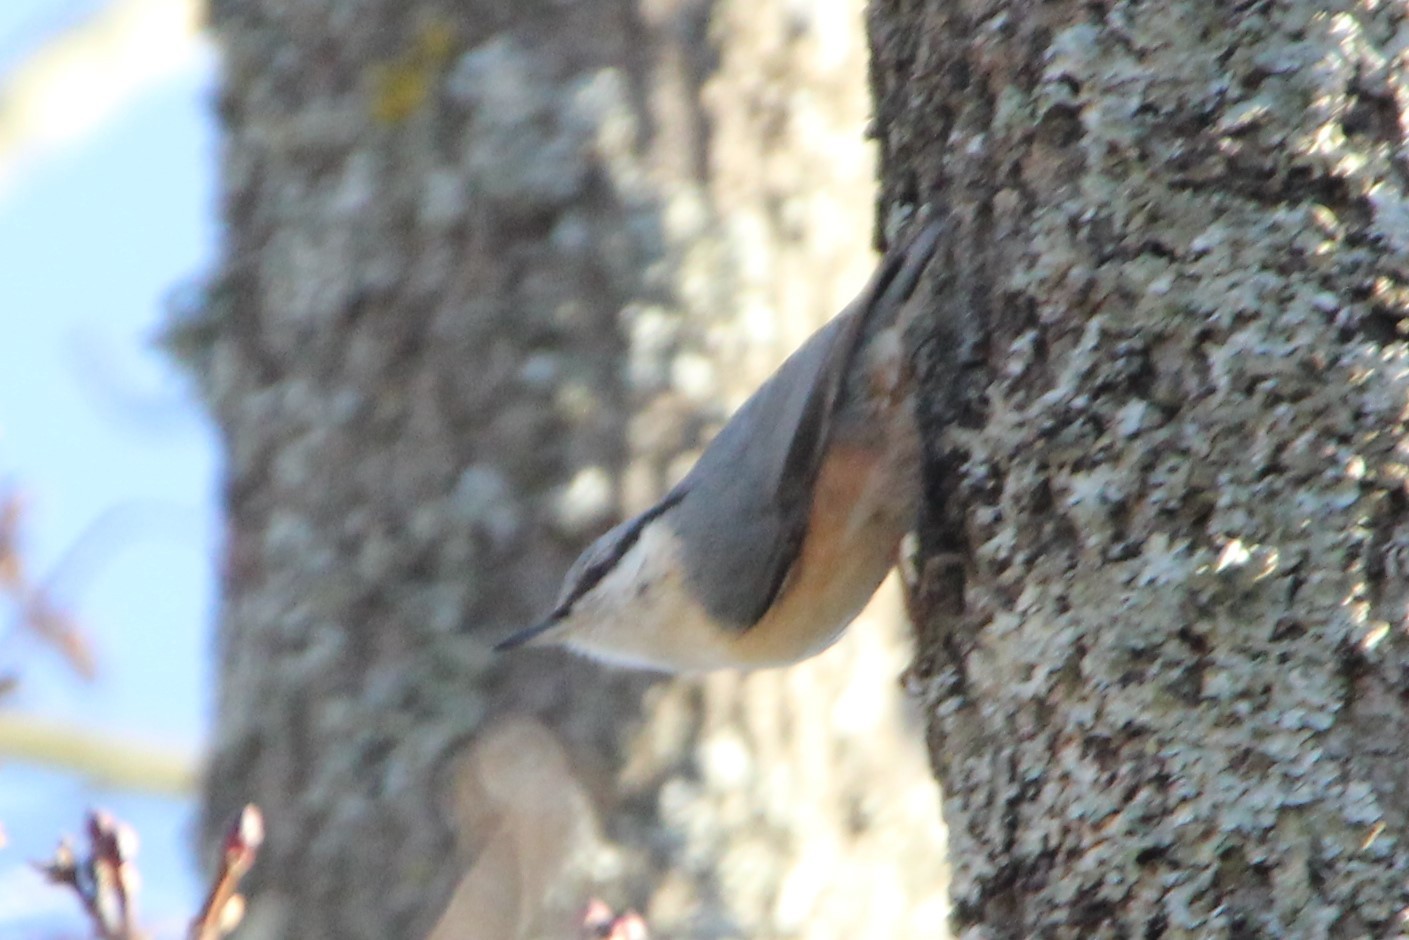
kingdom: Animalia
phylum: Chordata
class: Aves
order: Passeriformes
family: Sittidae
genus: Sitta
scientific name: Sitta europaea
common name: Eurasian nuthatch
